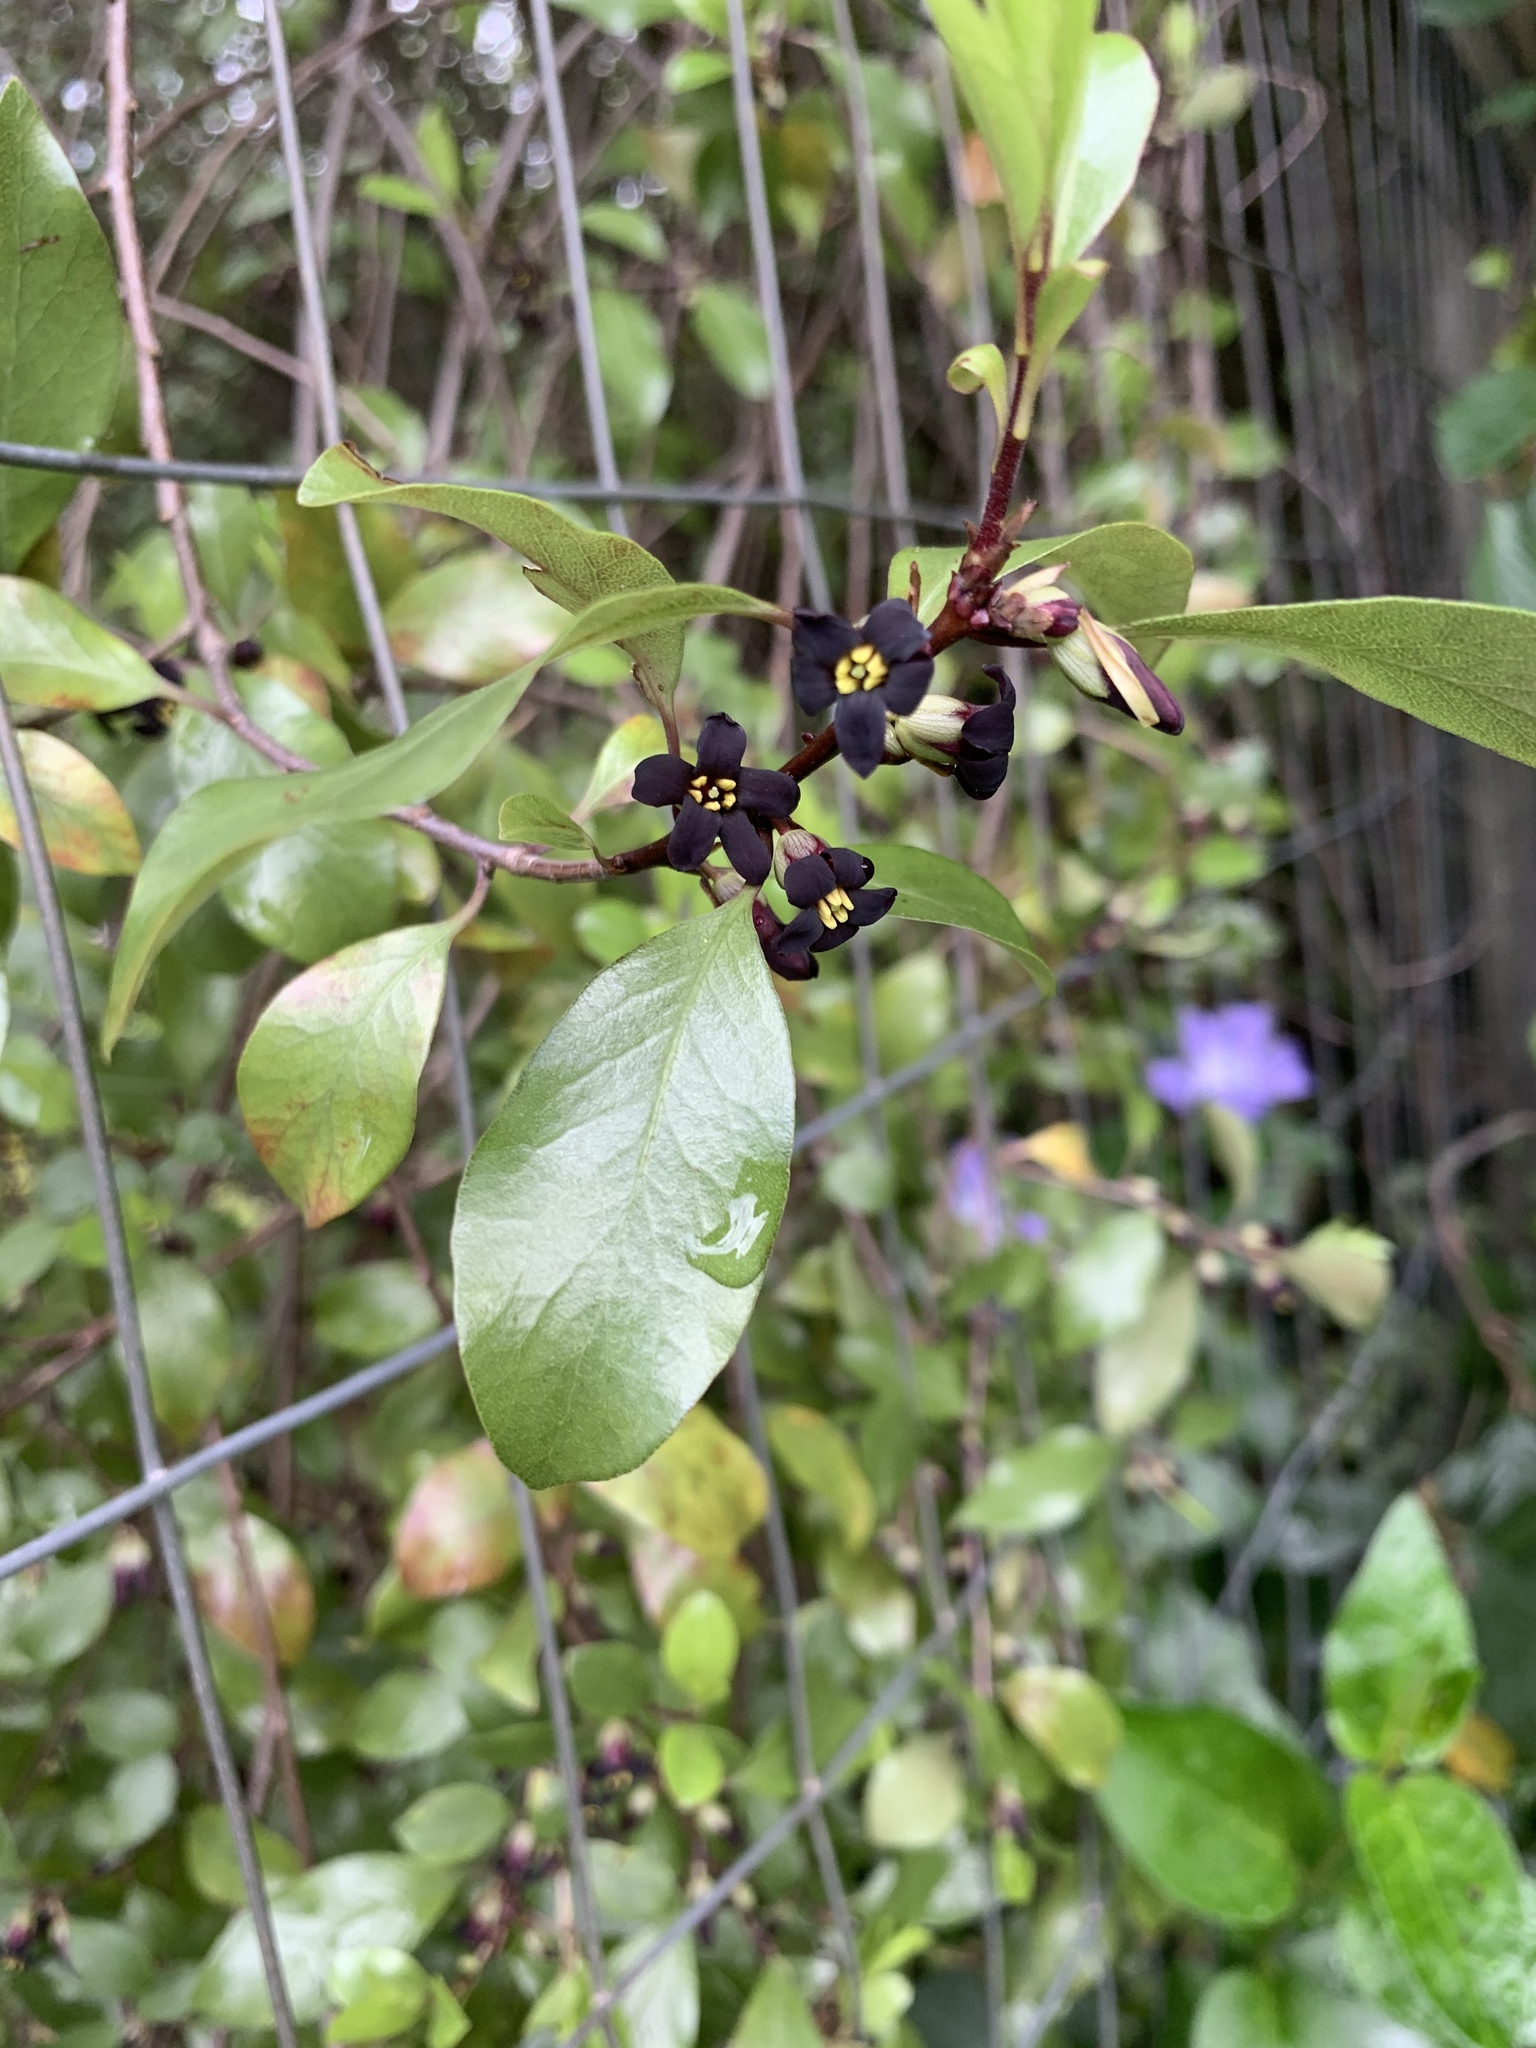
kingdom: Plantae
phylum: Tracheophyta
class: Magnoliopsida
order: Apiales
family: Pittosporaceae
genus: Pittosporum
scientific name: Pittosporum tenuifolium
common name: Kohuhu
